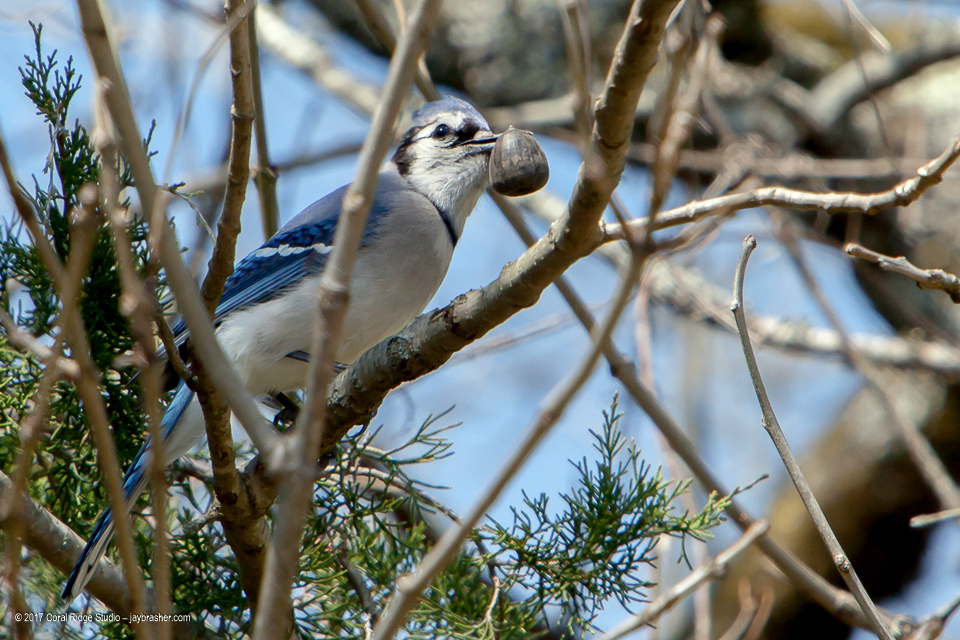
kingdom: Animalia
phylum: Chordata
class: Aves
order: Passeriformes
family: Corvidae
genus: Cyanocitta
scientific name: Cyanocitta cristata
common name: Blue jay
